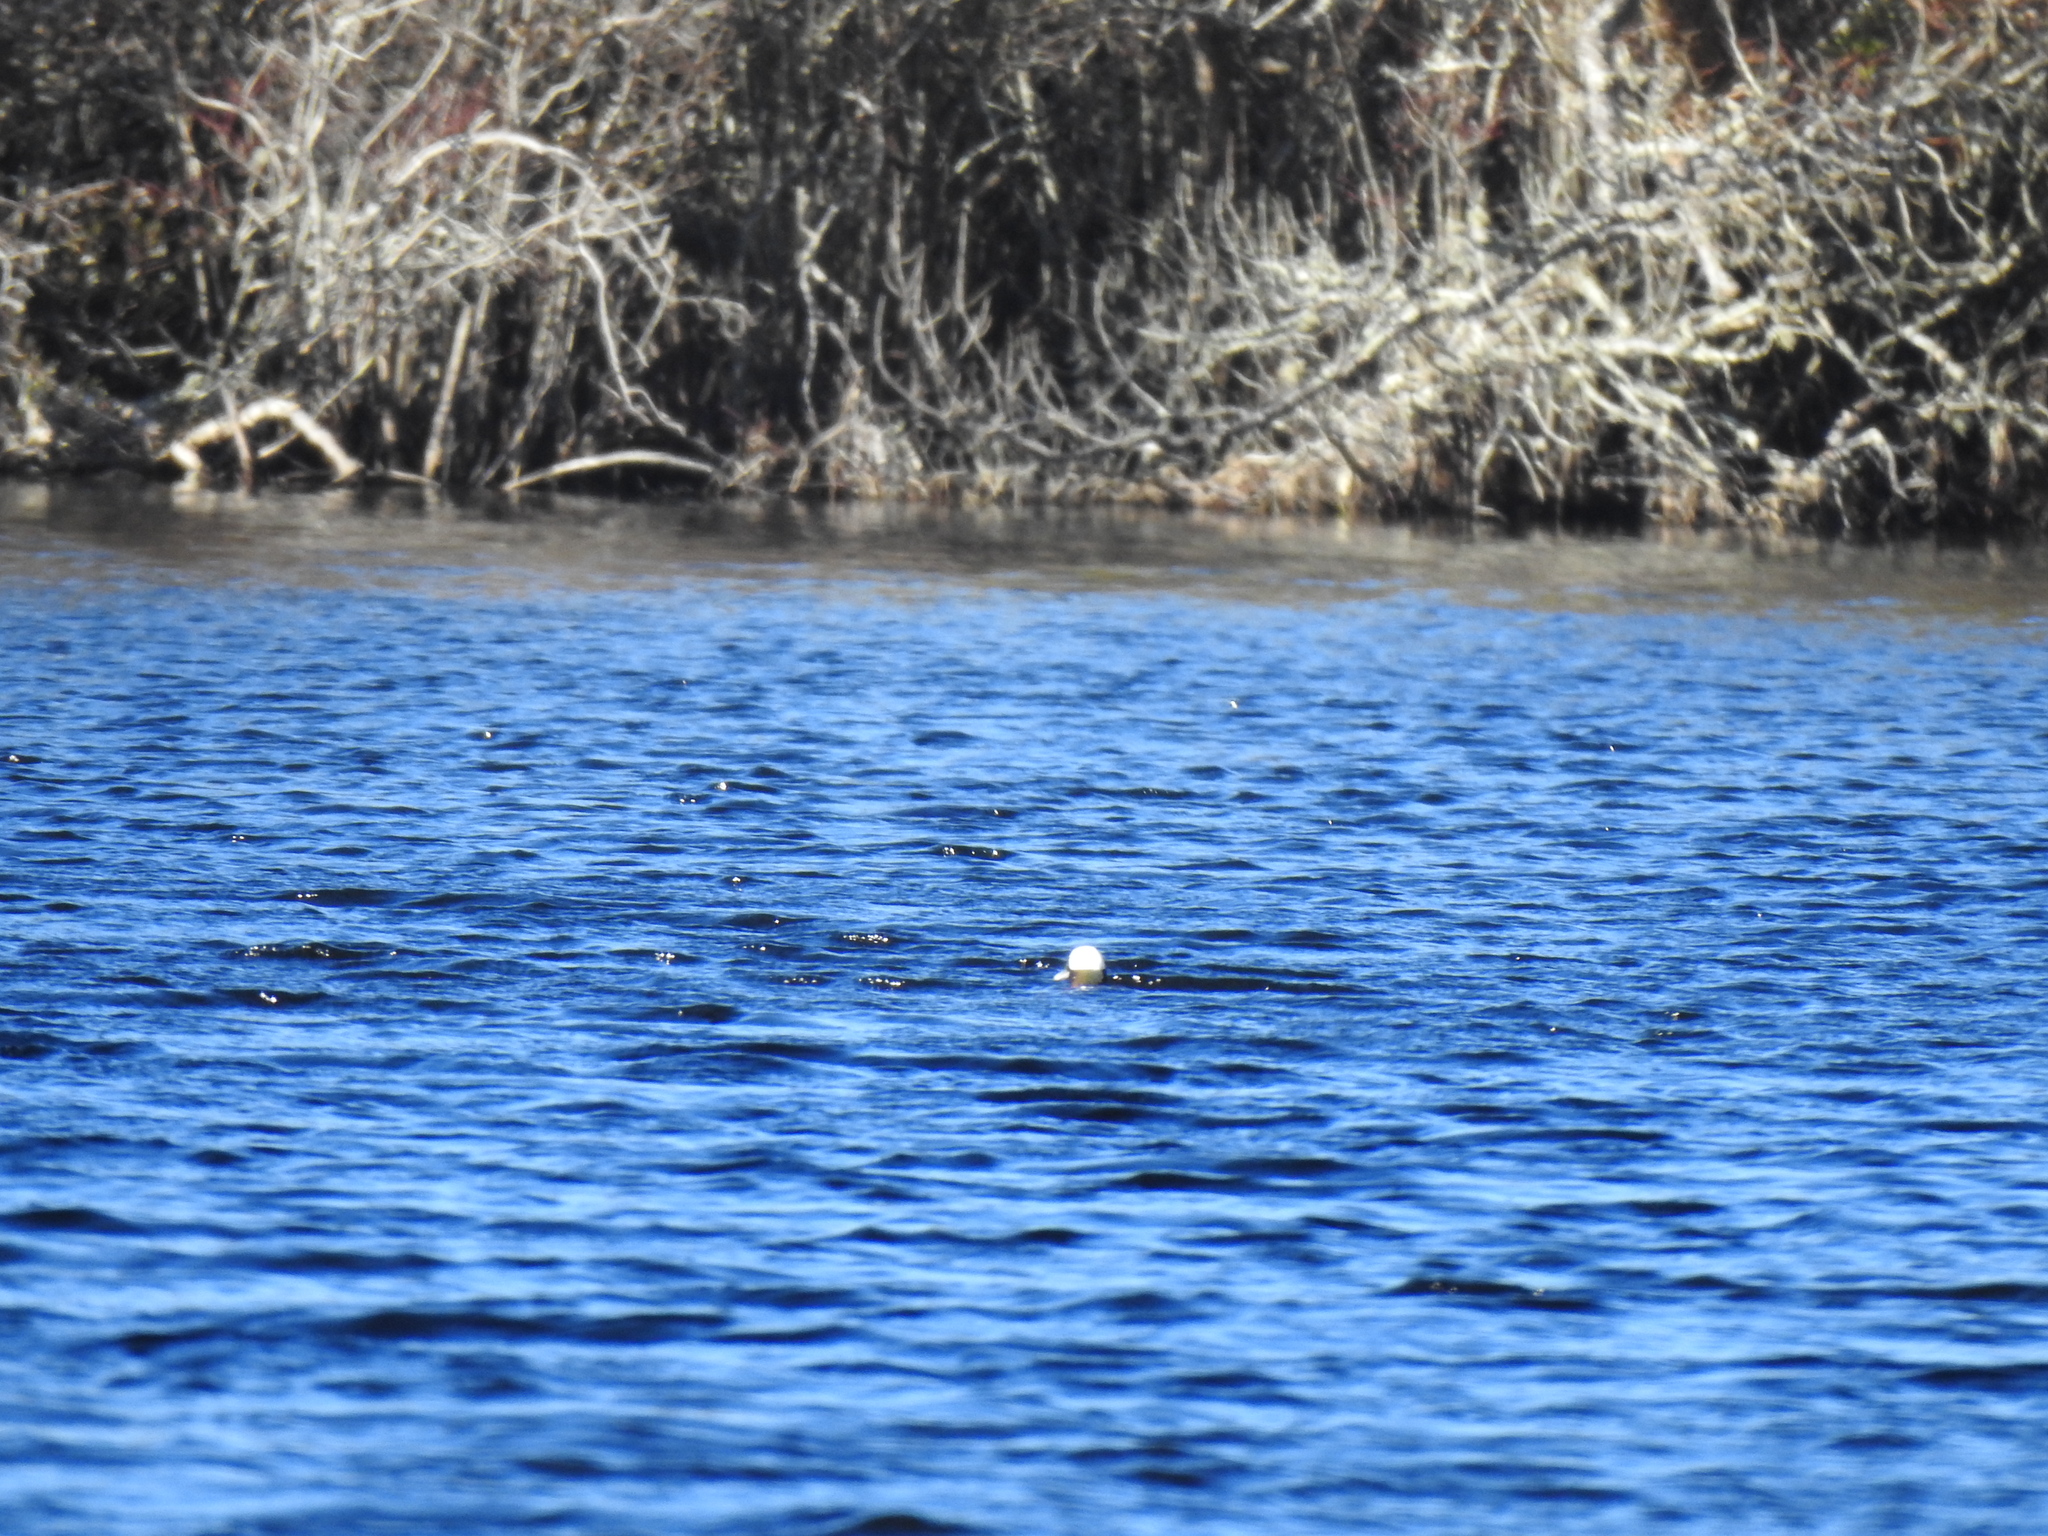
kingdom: Animalia
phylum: Chordata
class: Aves
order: Anseriformes
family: Anatidae
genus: Bucephala
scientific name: Bucephala albeola
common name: Bufflehead
